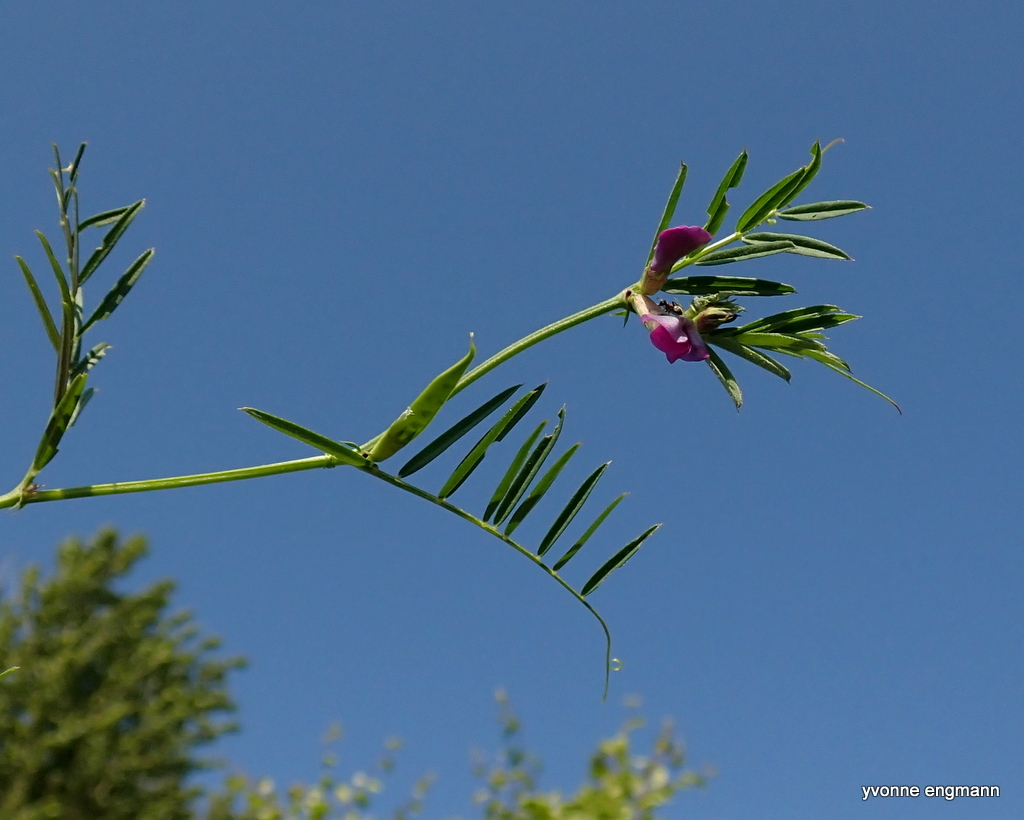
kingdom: Plantae
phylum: Tracheophyta
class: Magnoliopsida
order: Fabales
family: Fabaceae
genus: Vicia
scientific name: Vicia sativa
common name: Garden vetch
